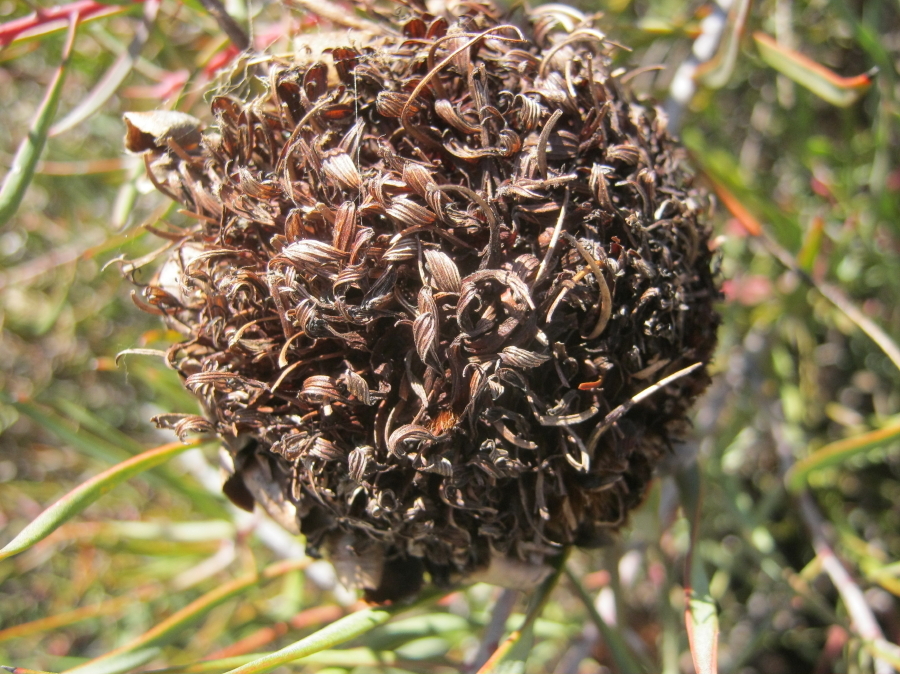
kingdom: Plantae
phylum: Tracheophyta
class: Magnoliopsida
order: Proteales
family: Proteaceae
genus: Protea
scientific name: Protea humiflora
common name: Patent-leaf sugarbush
